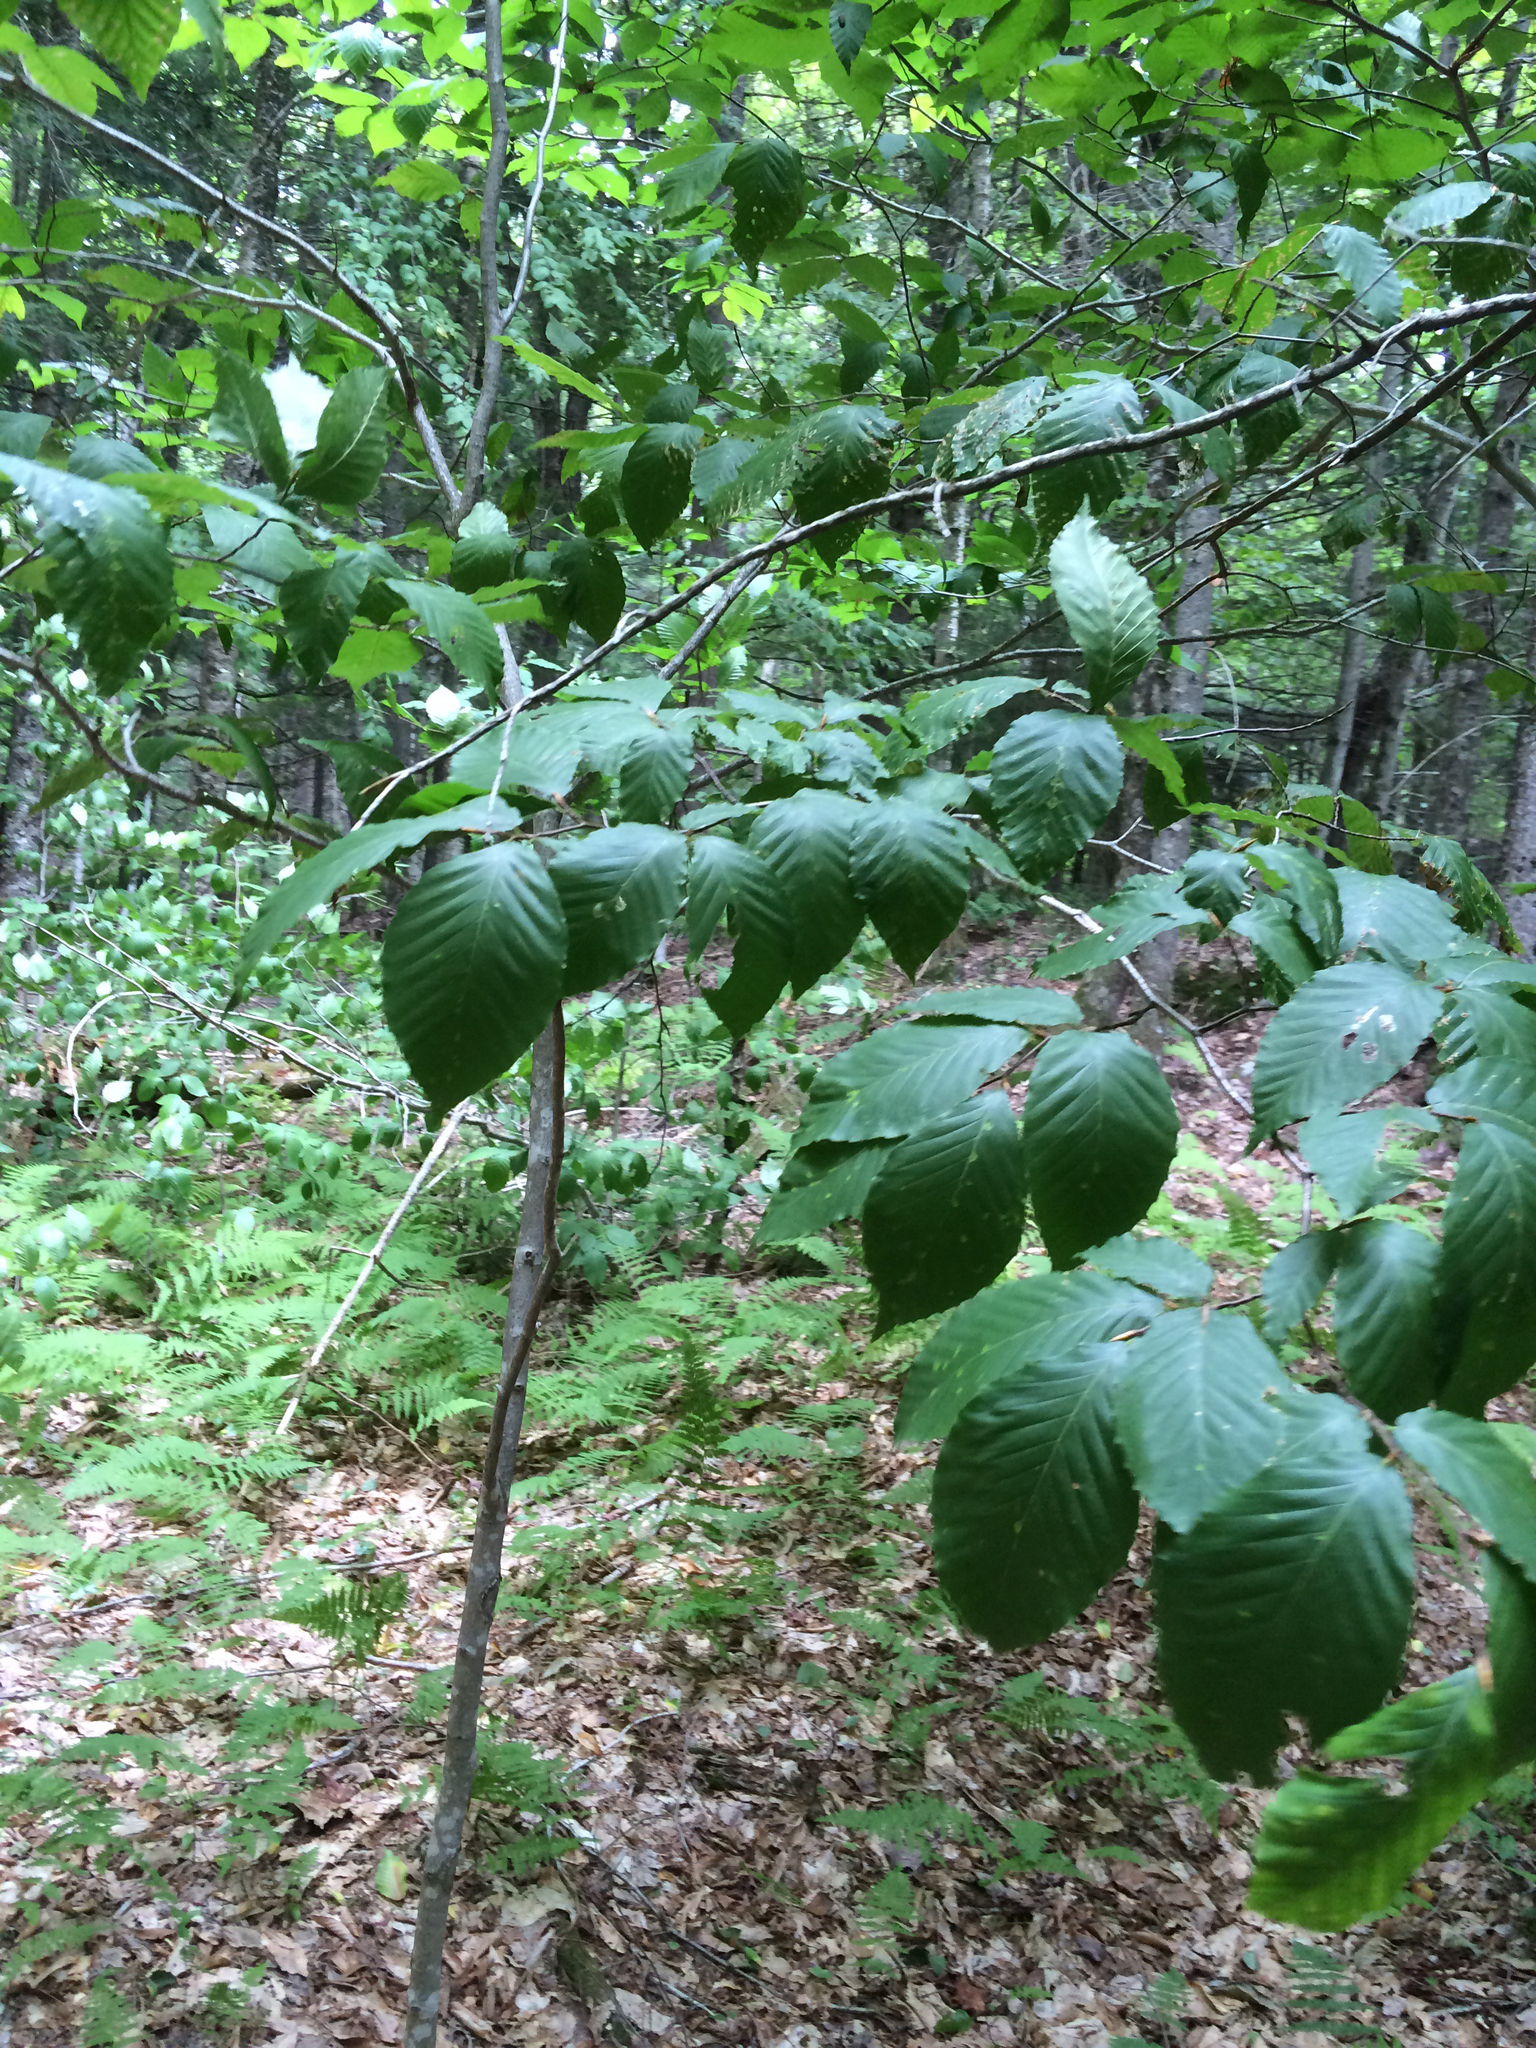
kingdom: Plantae
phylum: Tracheophyta
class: Magnoliopsida
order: Fagales
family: Fagaceae
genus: Fagus
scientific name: Fagus grandifolia
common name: American beech
